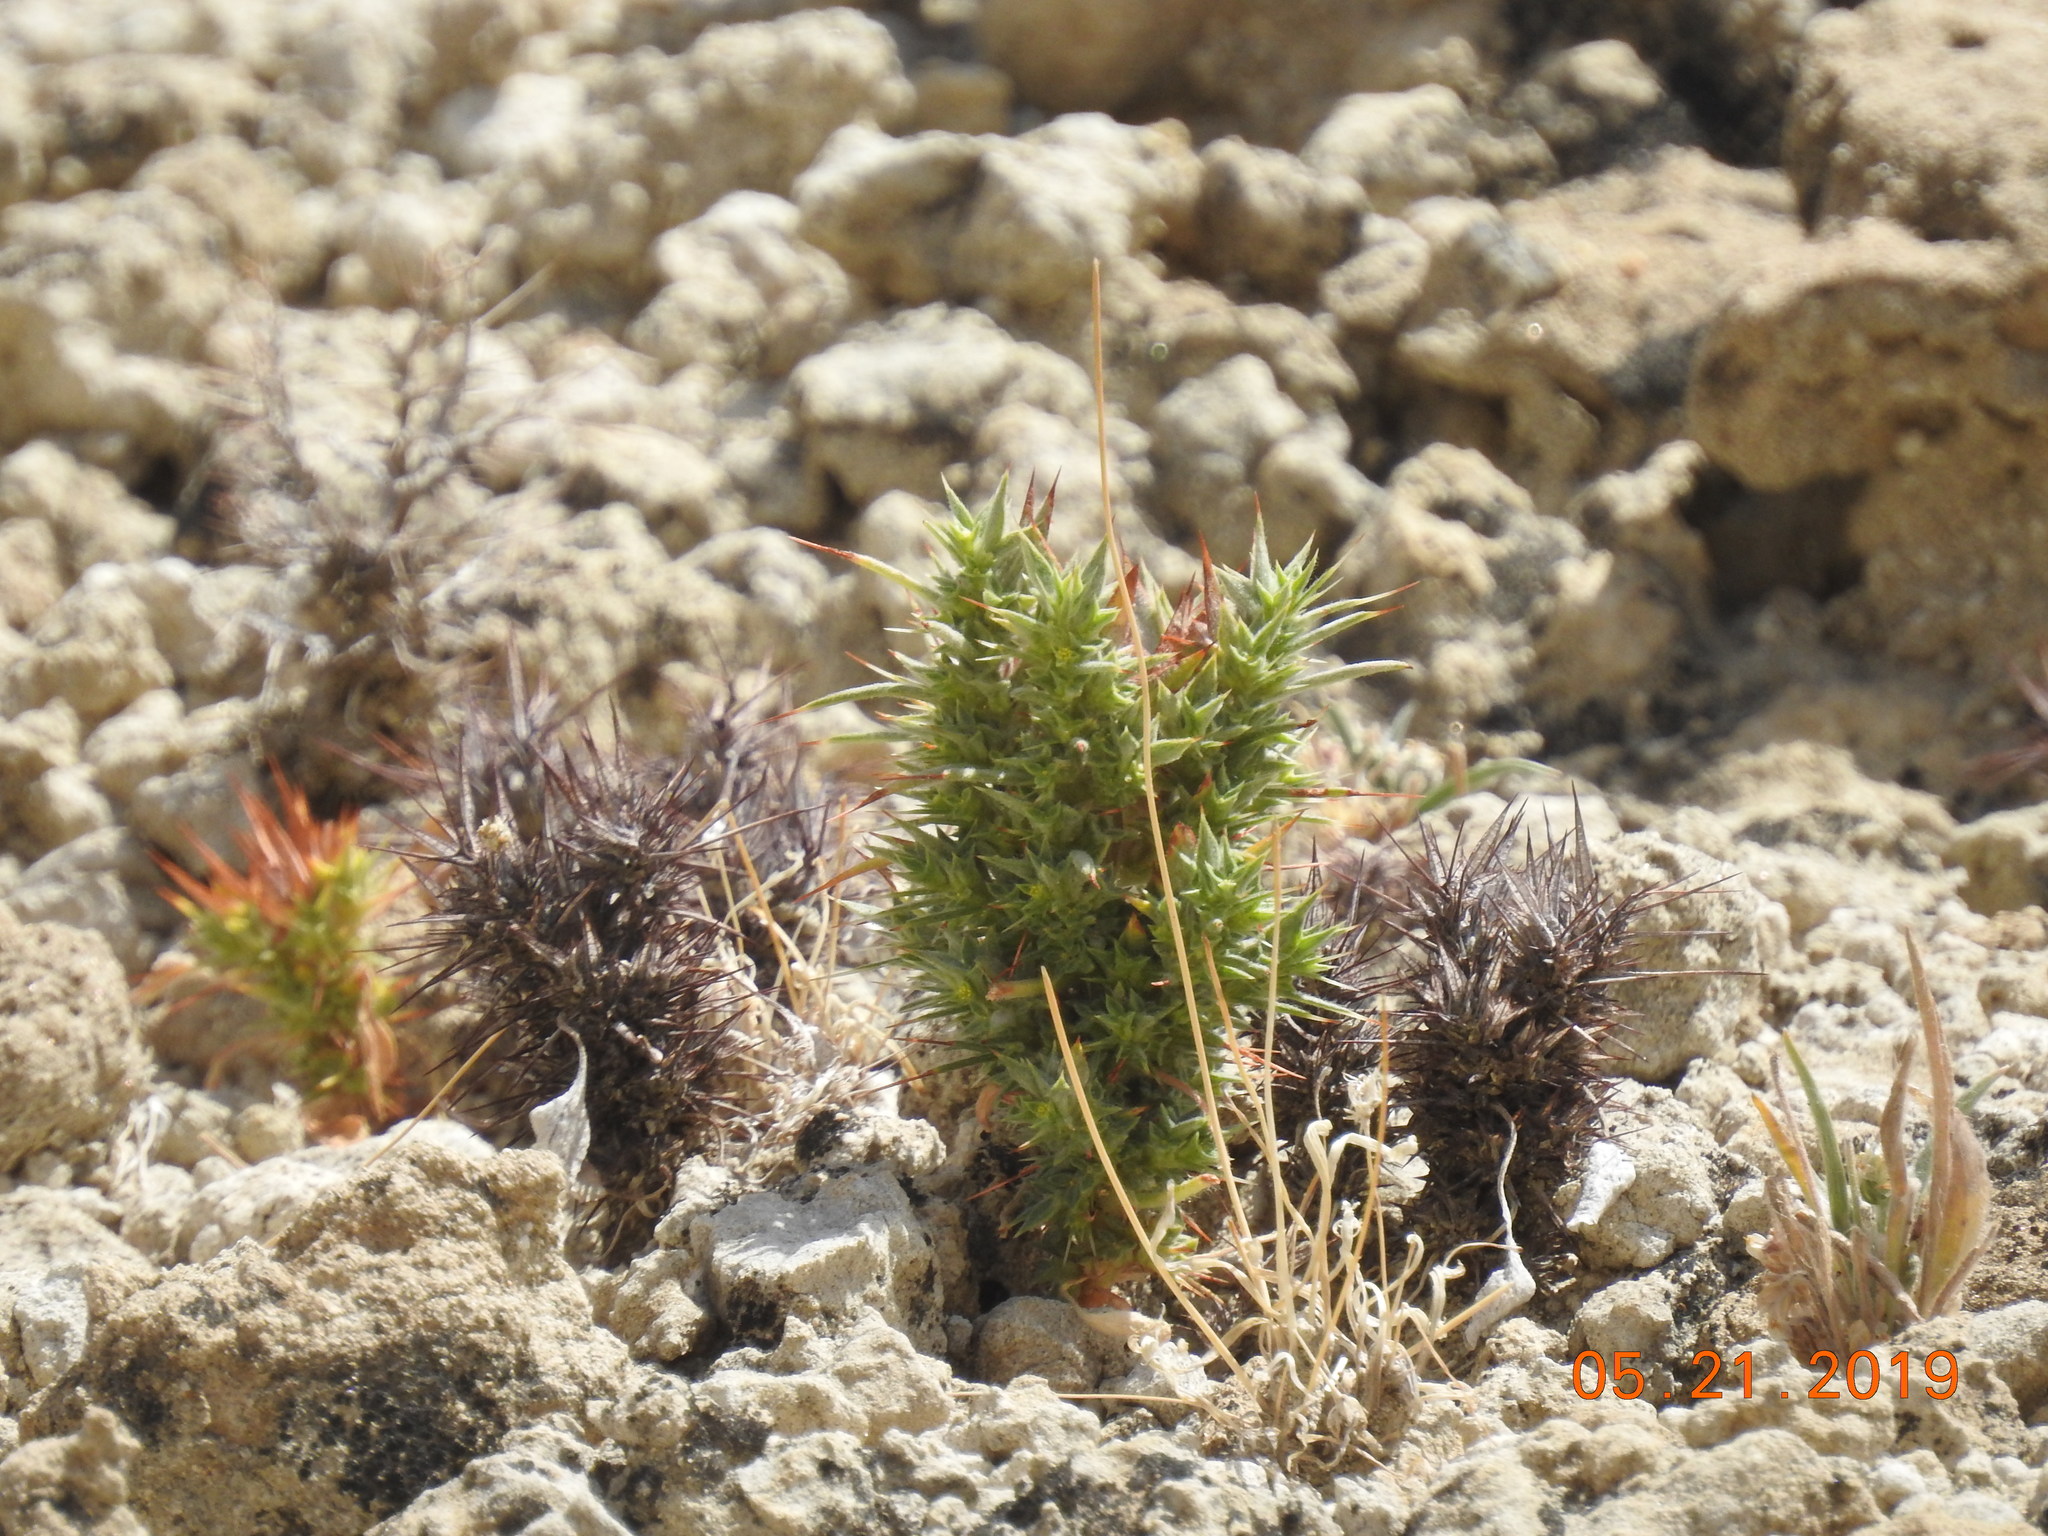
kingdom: Plantae
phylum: Tracheophyta
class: Magnoliopsida
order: Caryophyllales
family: Polygonaceae
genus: Chorizanthe
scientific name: Chorizanthe rigida
